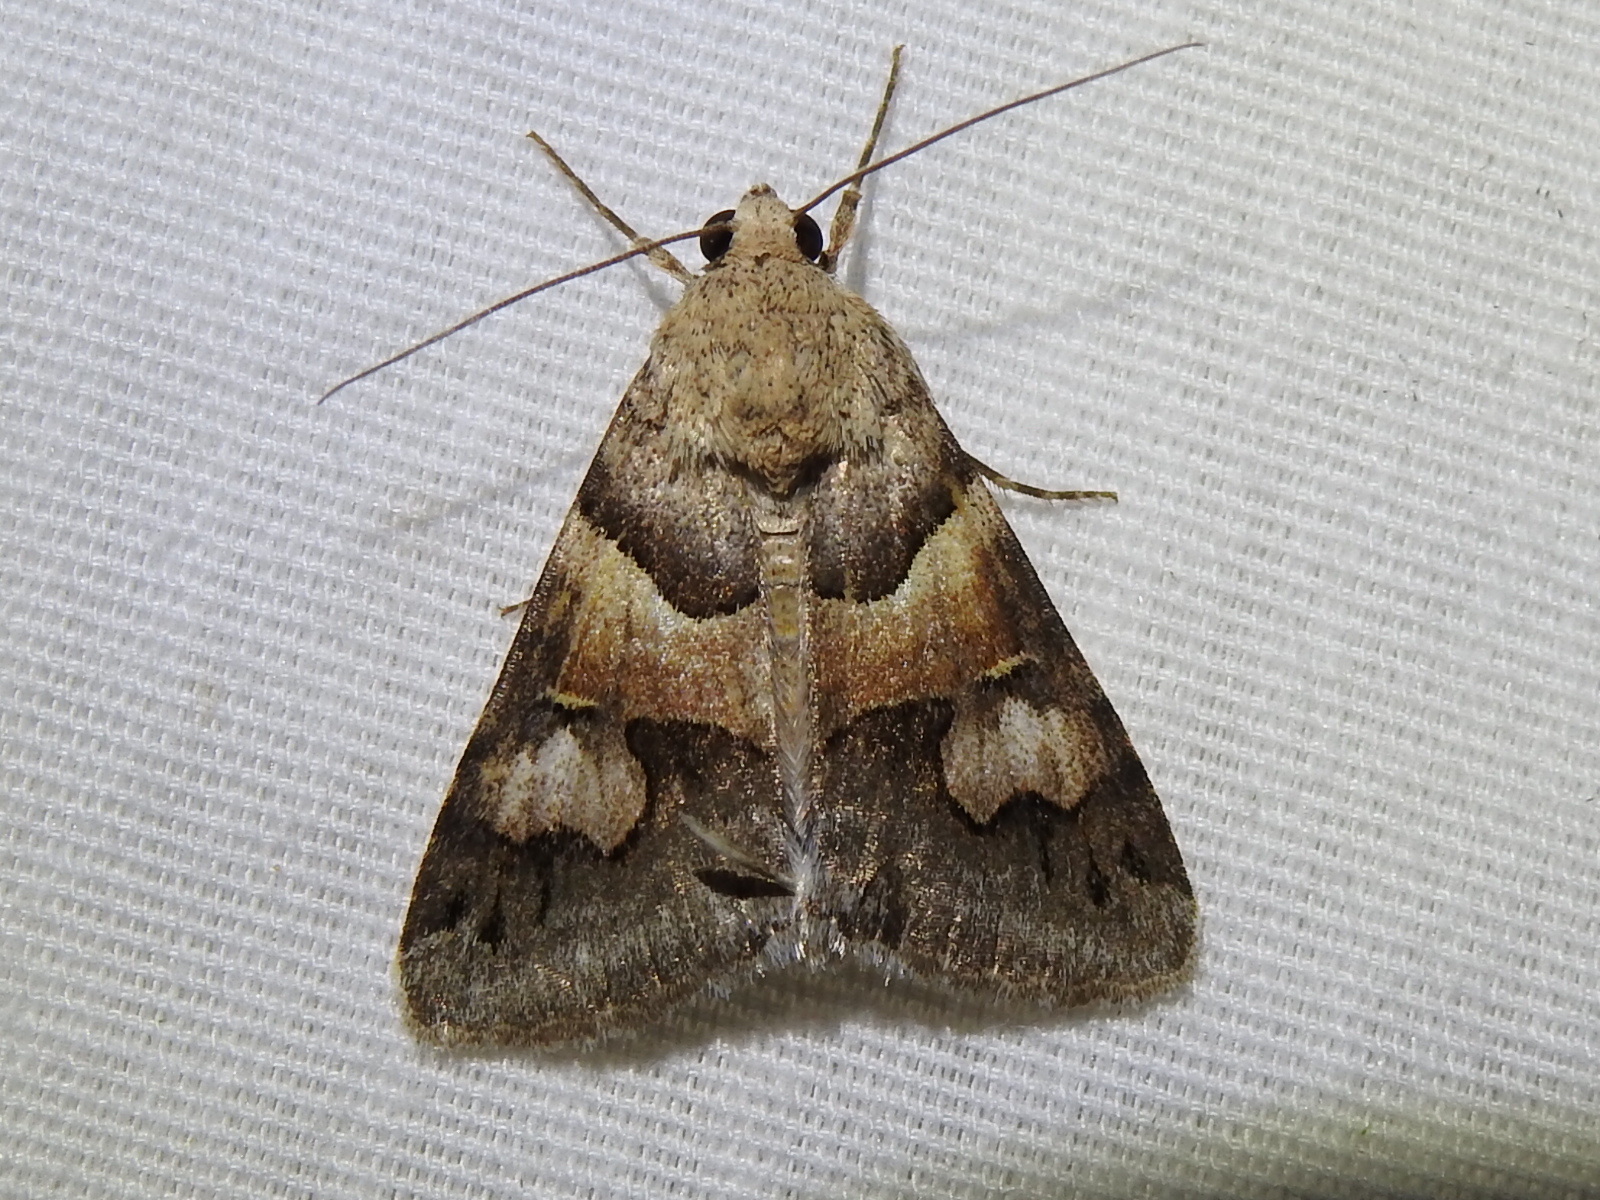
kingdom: Animalia
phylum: Arthropoda
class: Insecta
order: Lepidoptera
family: Erebidae
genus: Drasteria
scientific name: Drasteria pallescens
